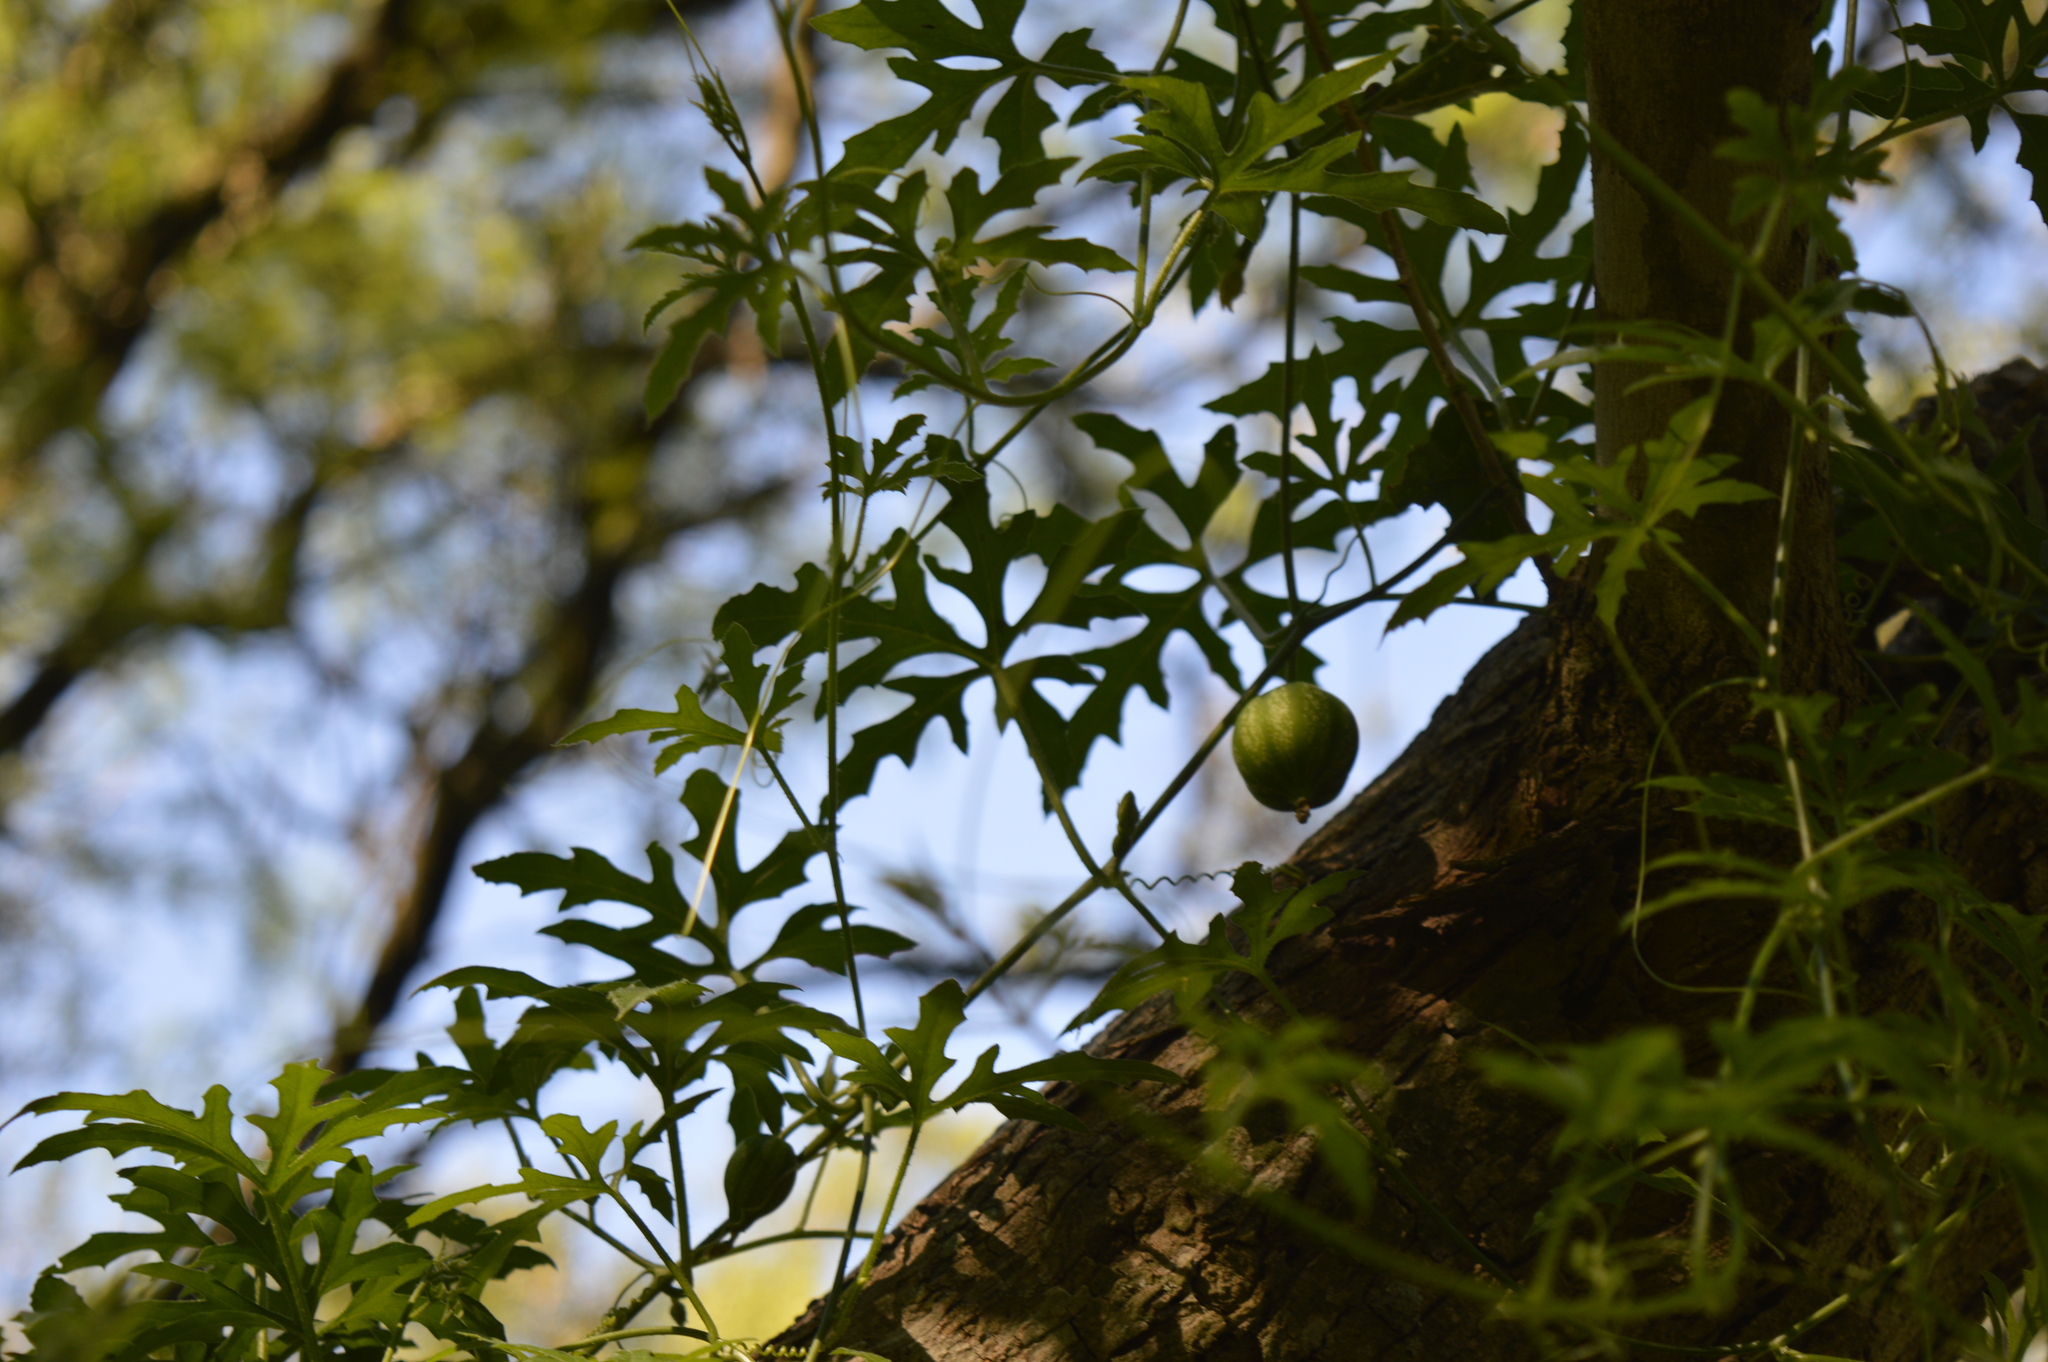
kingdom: Plantae
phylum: Tracheophyta
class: Magnoliopsida
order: Cucurbitales
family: Cucurbitaceae
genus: Cucurbitella
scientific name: Cucurbitella asperata
